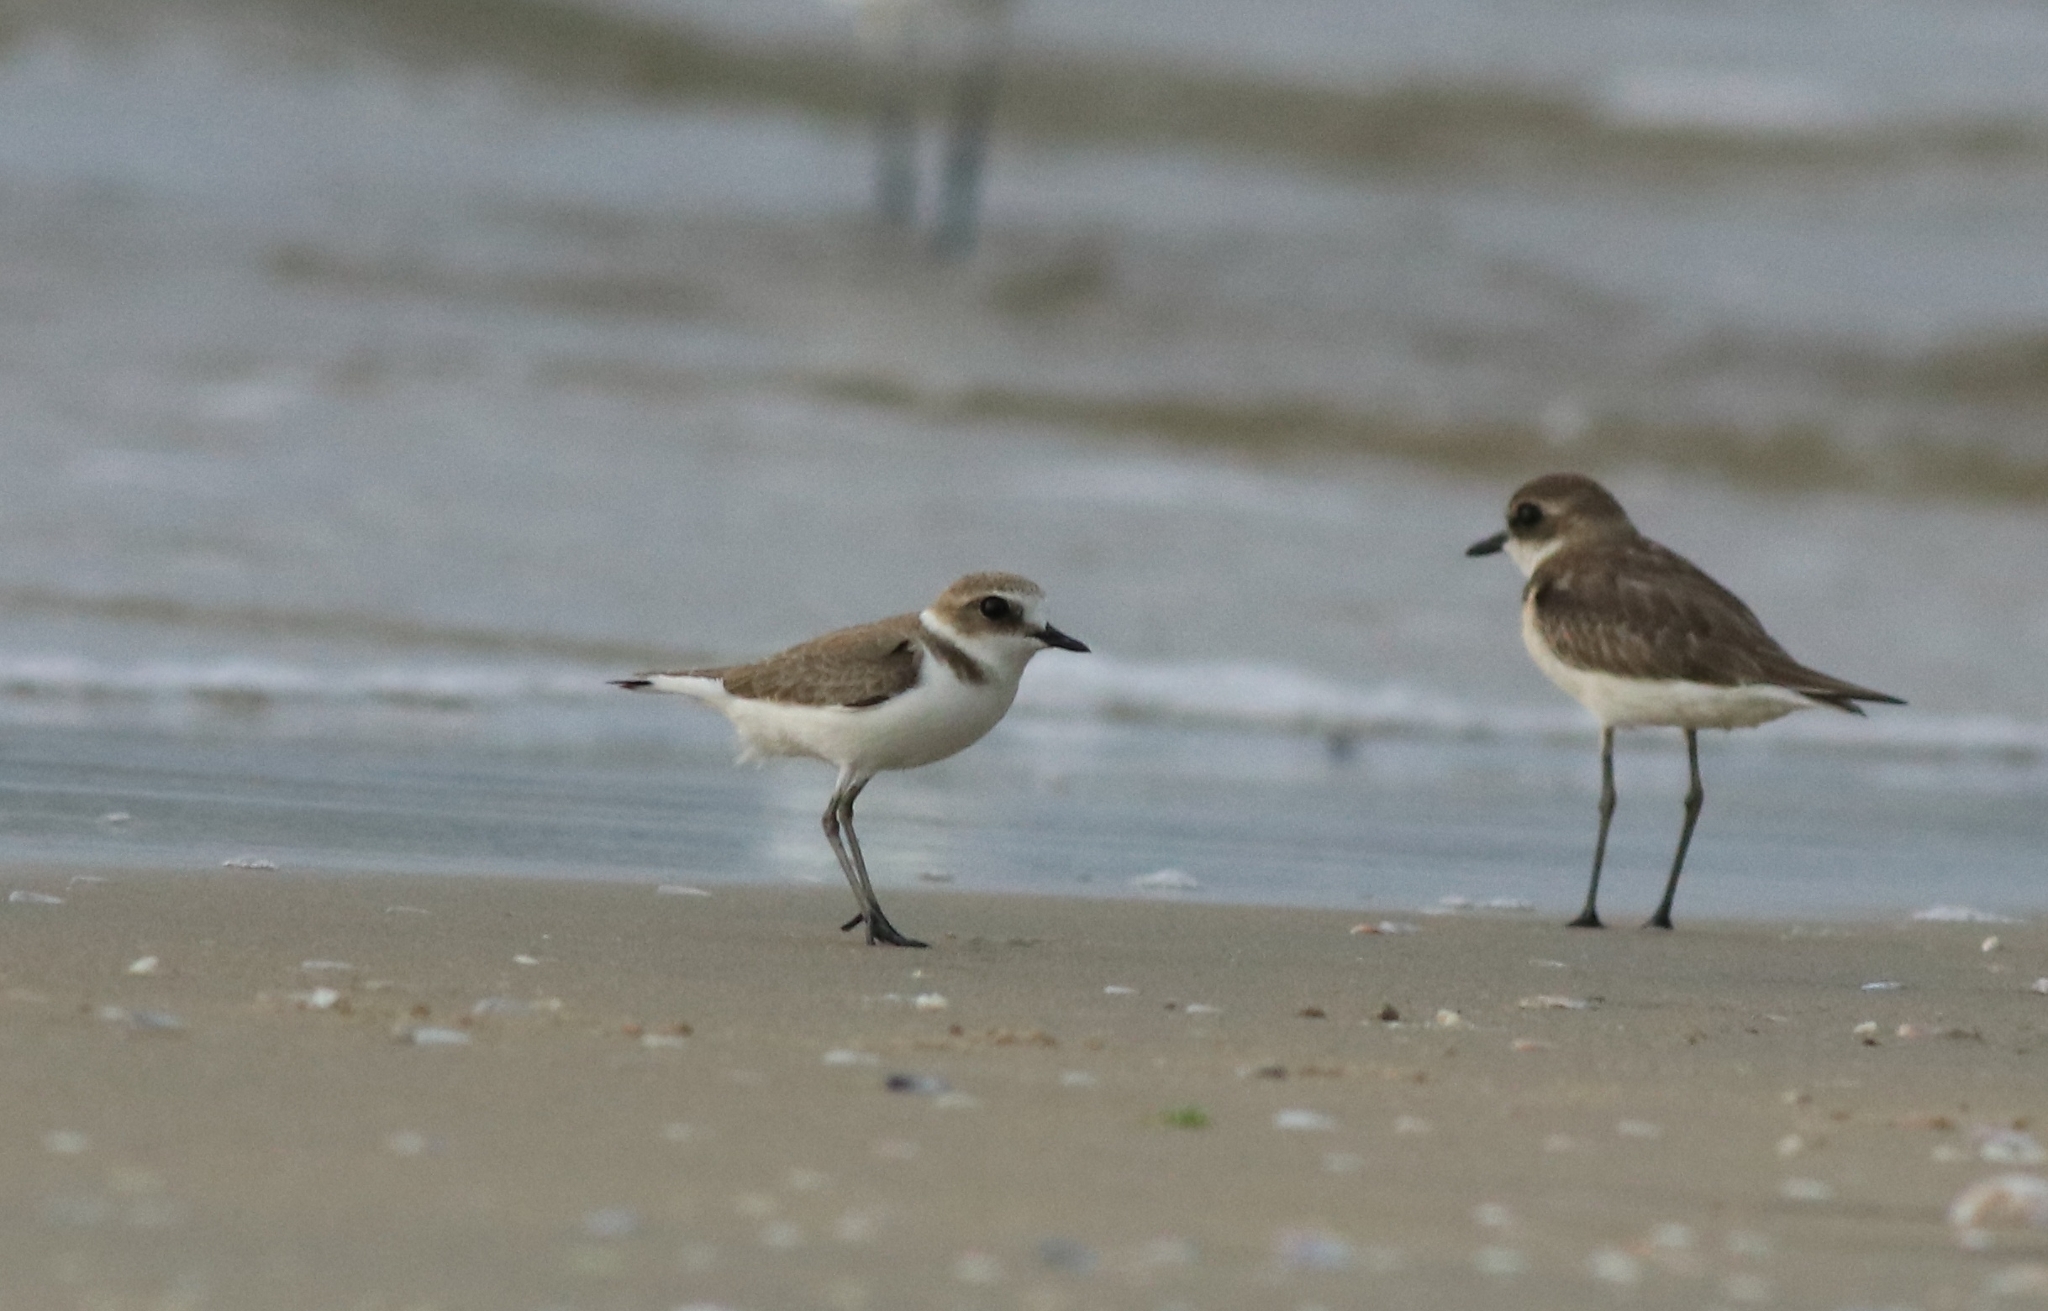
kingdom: Animalia
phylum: Chordata
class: Aves
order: Charadriiformes
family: Charadriidae
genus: Charadrius
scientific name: Charadrius alexandrinus
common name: Kentish plover
